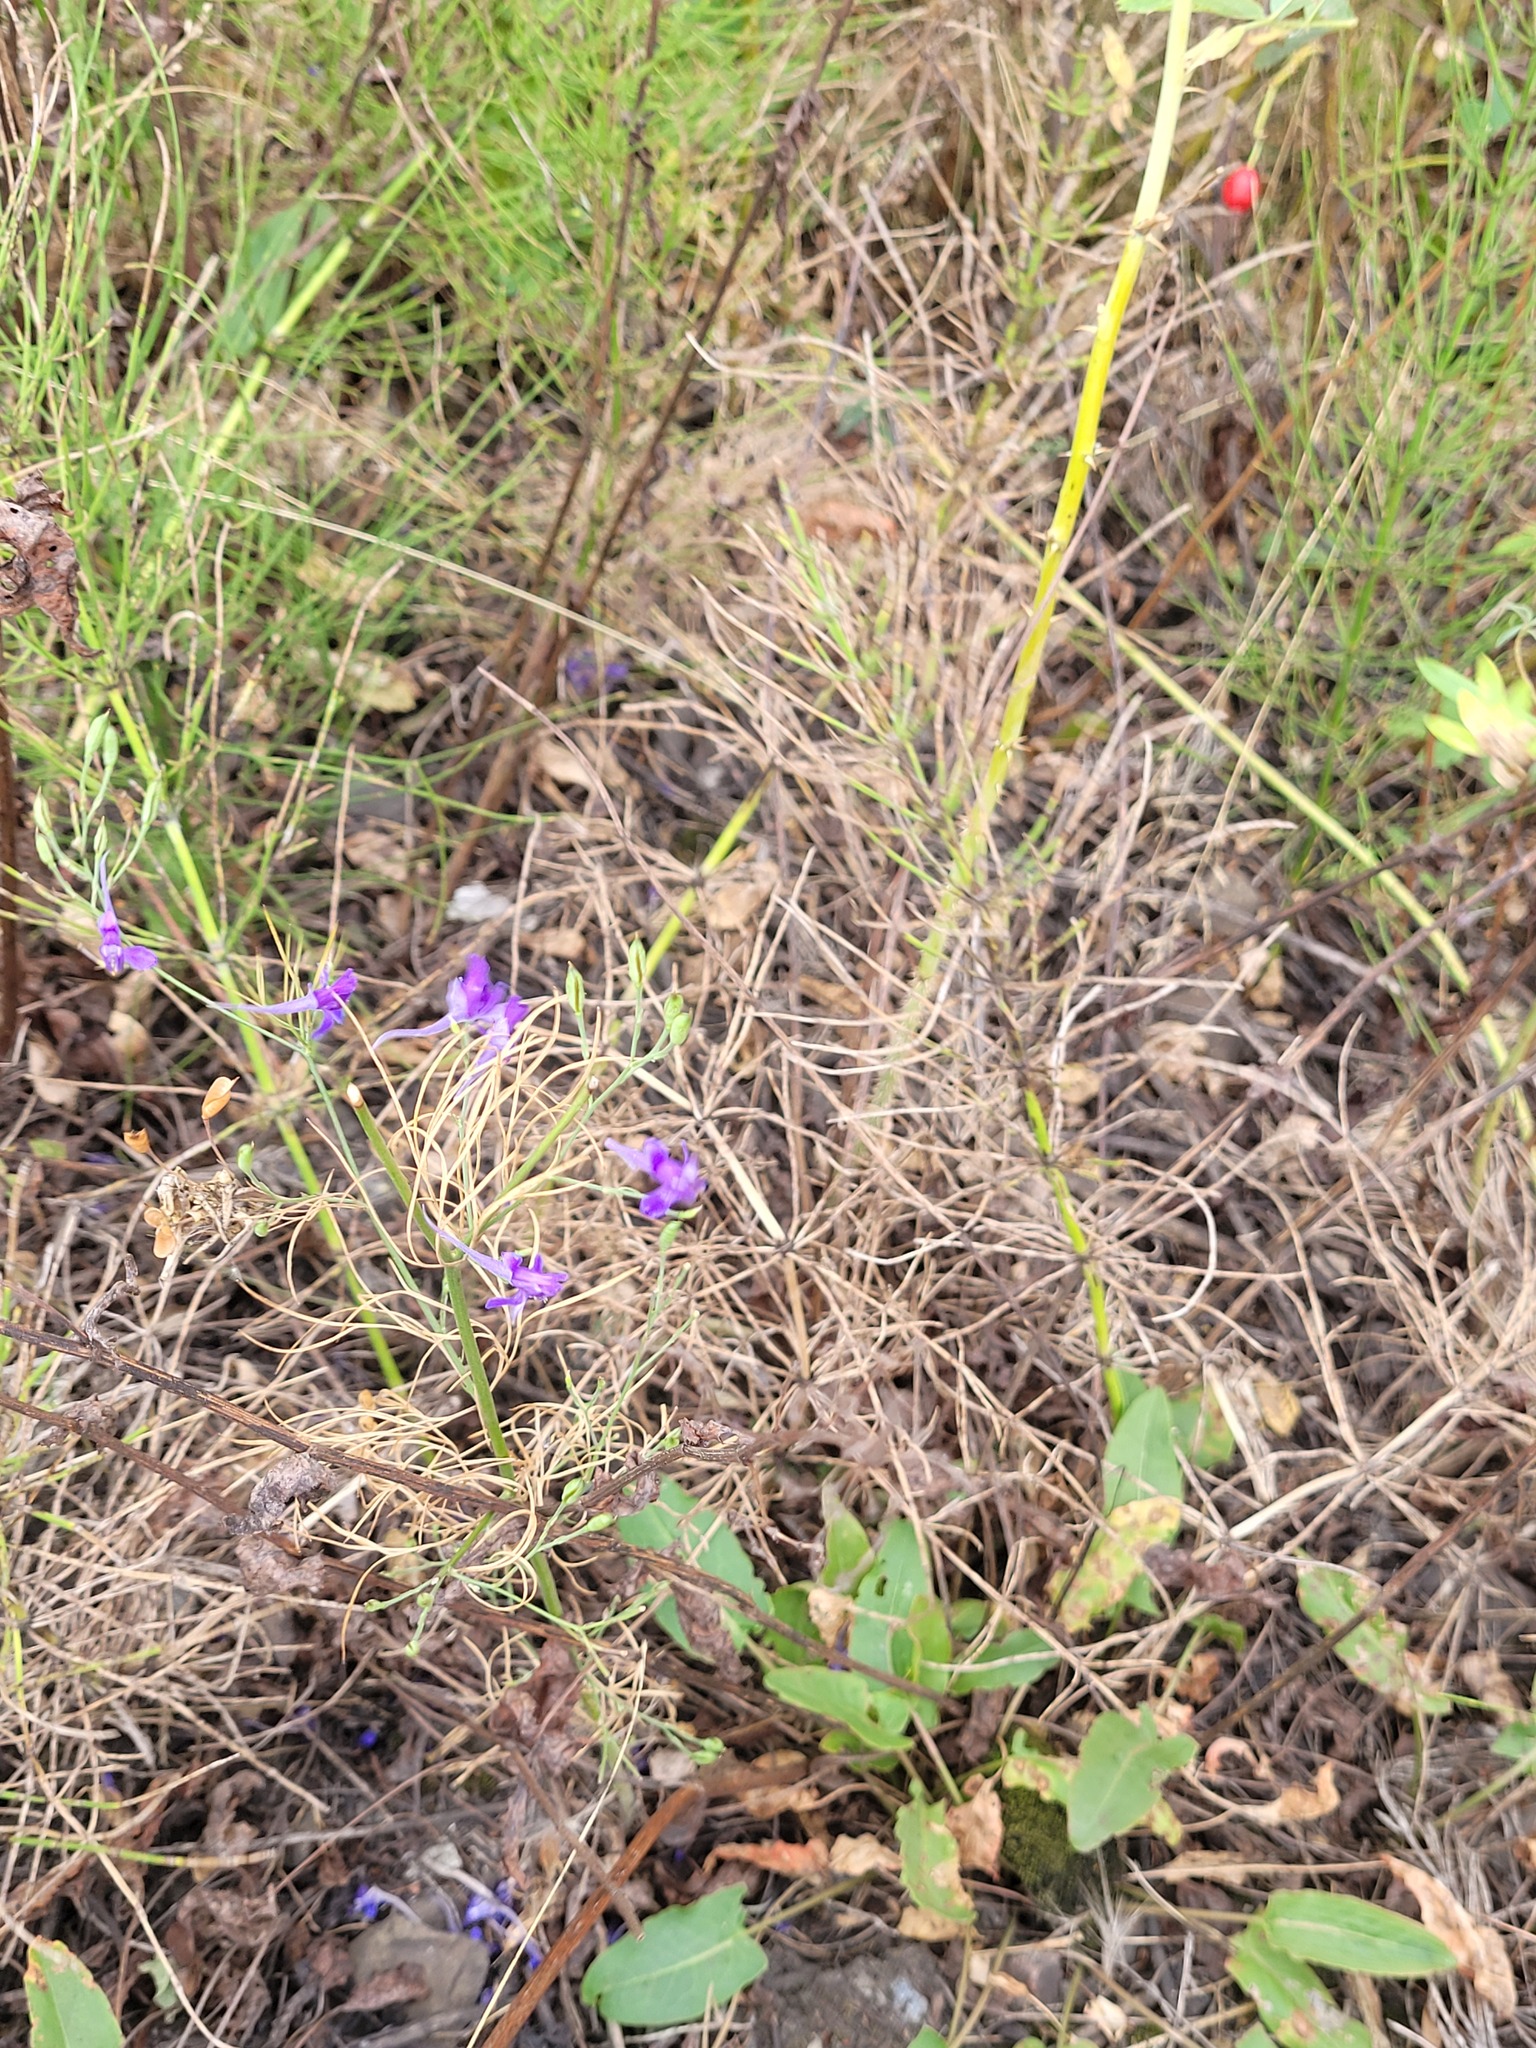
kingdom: Plantae
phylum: Tracheophyta
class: Magnoliopsida
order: Ranunculales
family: Ranunculaceae
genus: Delphinium
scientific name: Delphinium consolida
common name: Branching larkspur
